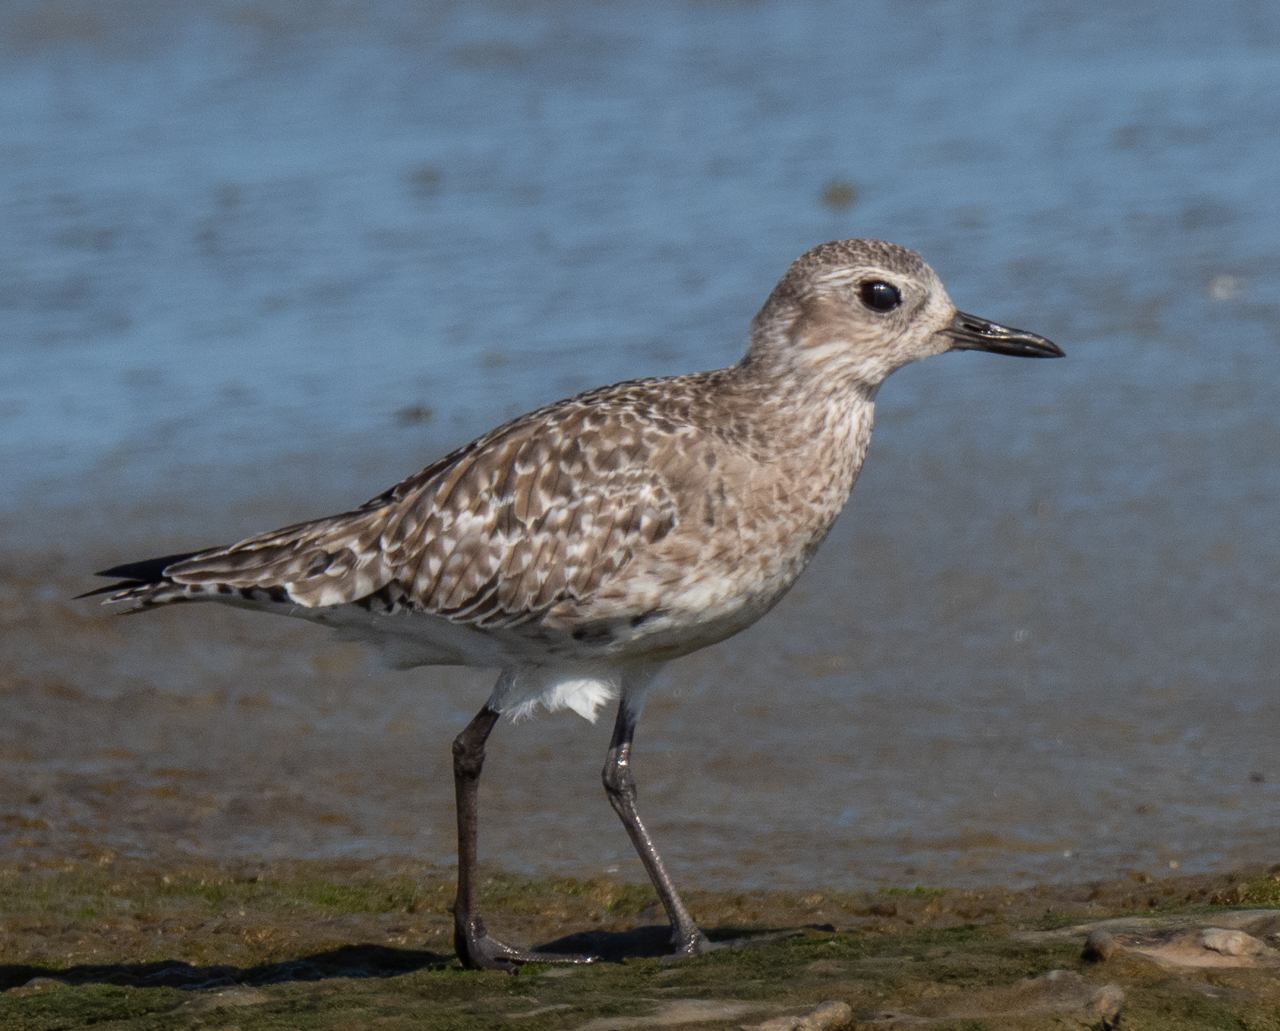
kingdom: Animalia
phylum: Chordata
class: Aves
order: Charadriiformes
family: Charadriidae
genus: Pluvialis
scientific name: Pluvialis squatarola
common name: Grey plover
